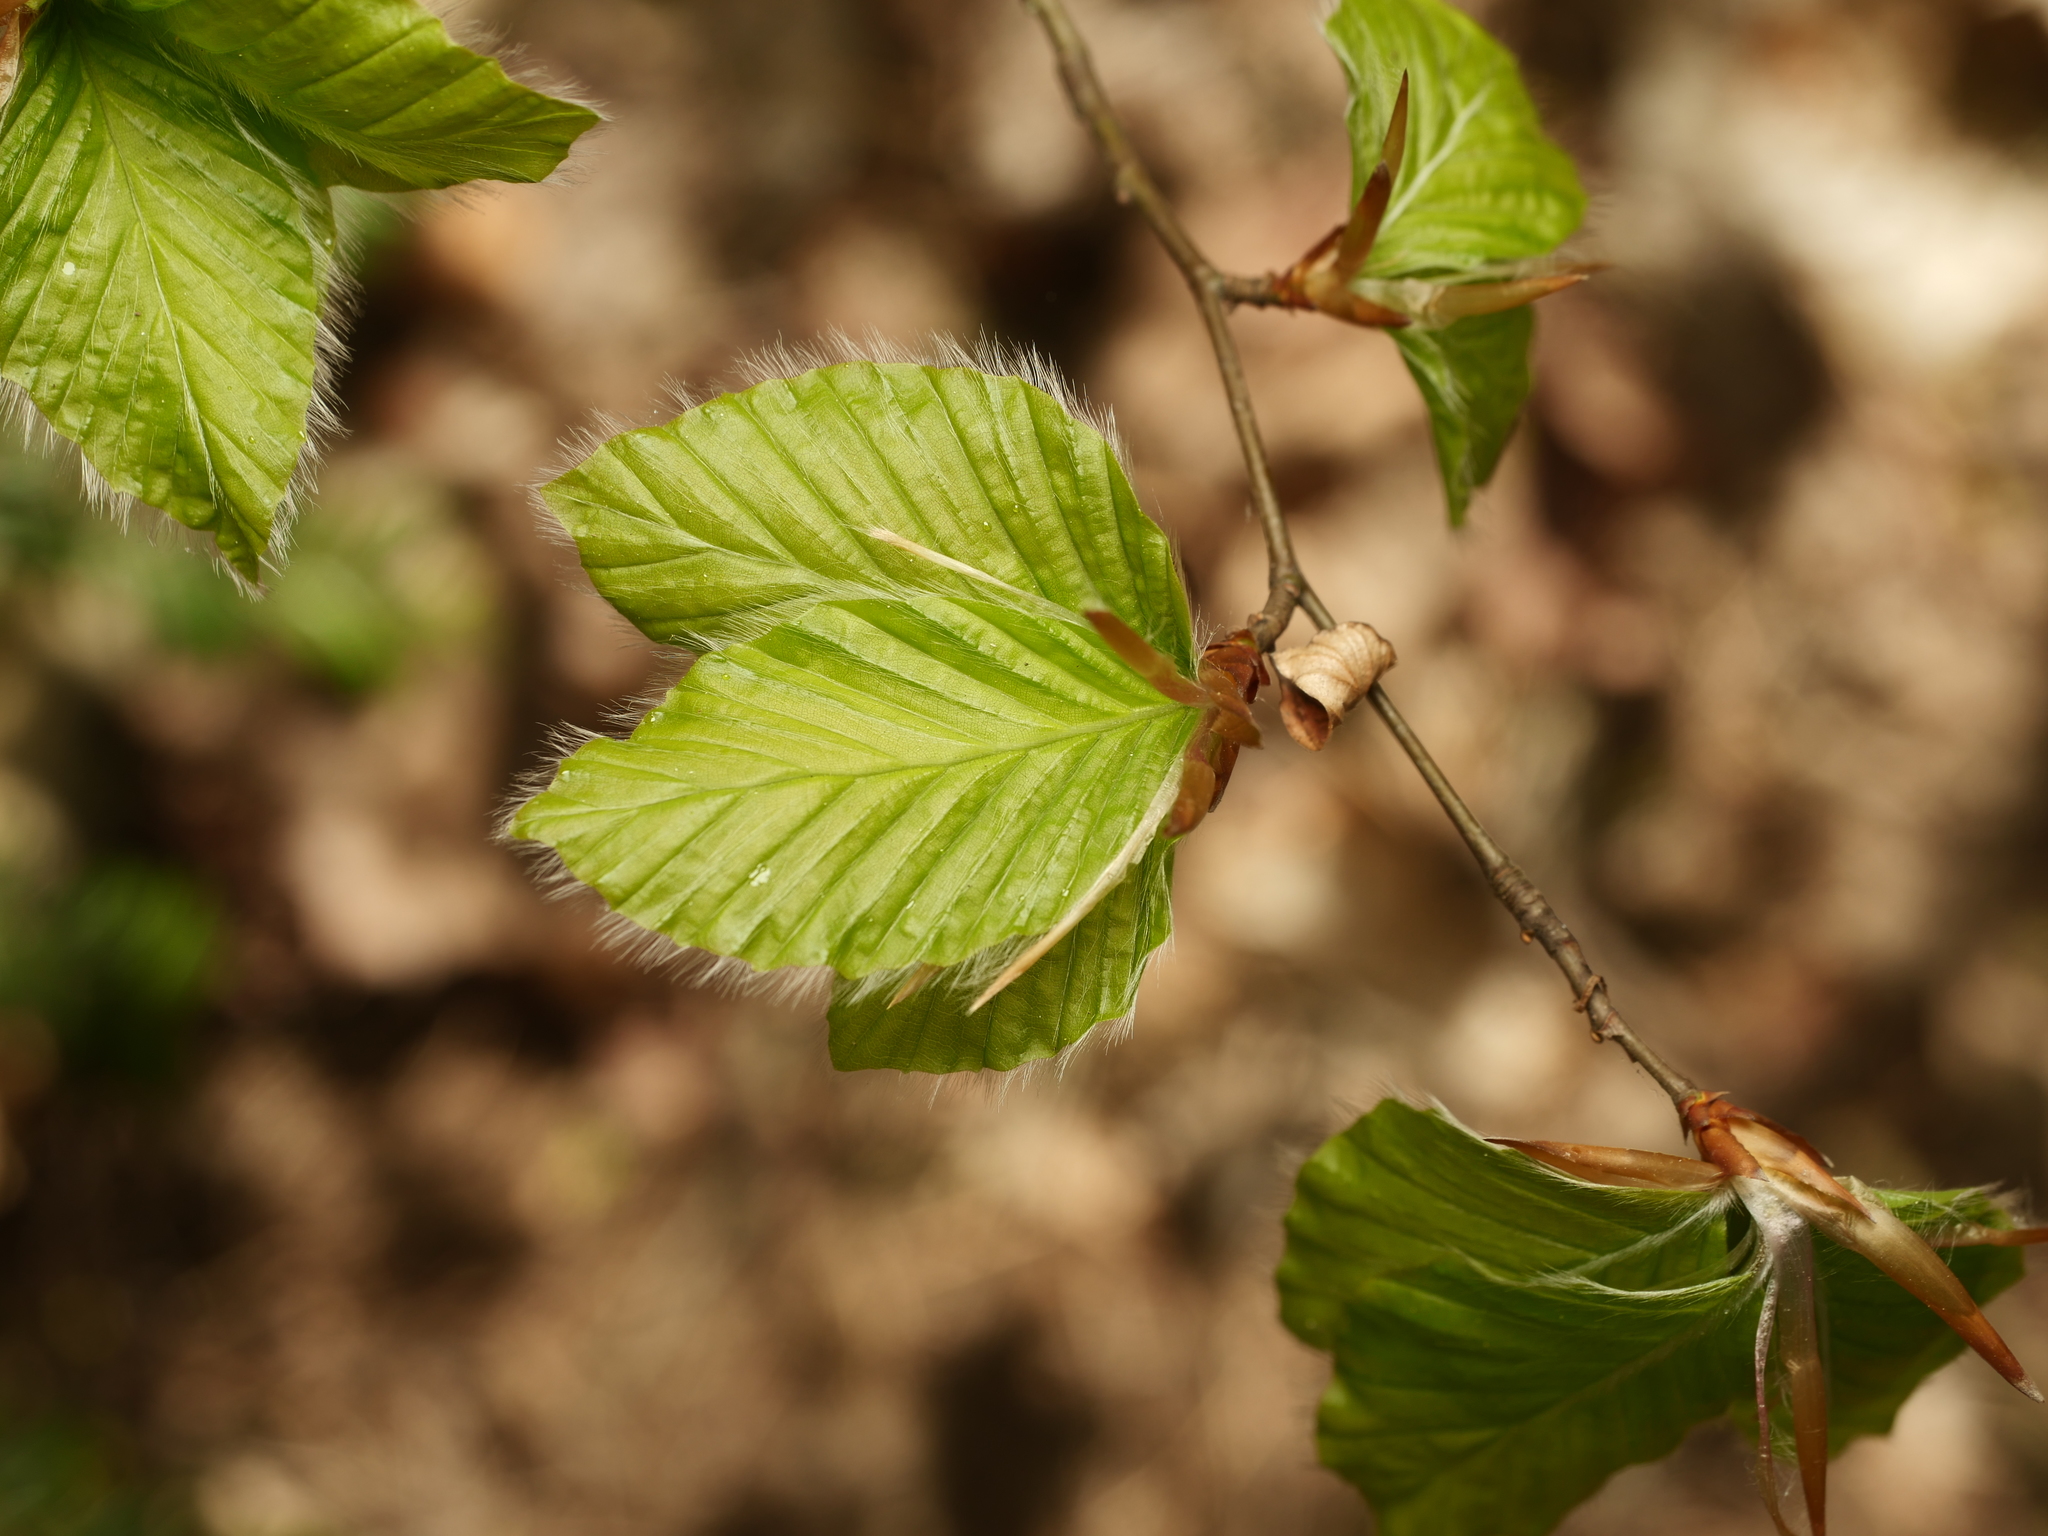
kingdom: Plantae
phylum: Tracheophyta
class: Magnoliopsida
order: Fagales
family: Fagaceae
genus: Fagus
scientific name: Fagus sylvatica
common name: Beech
